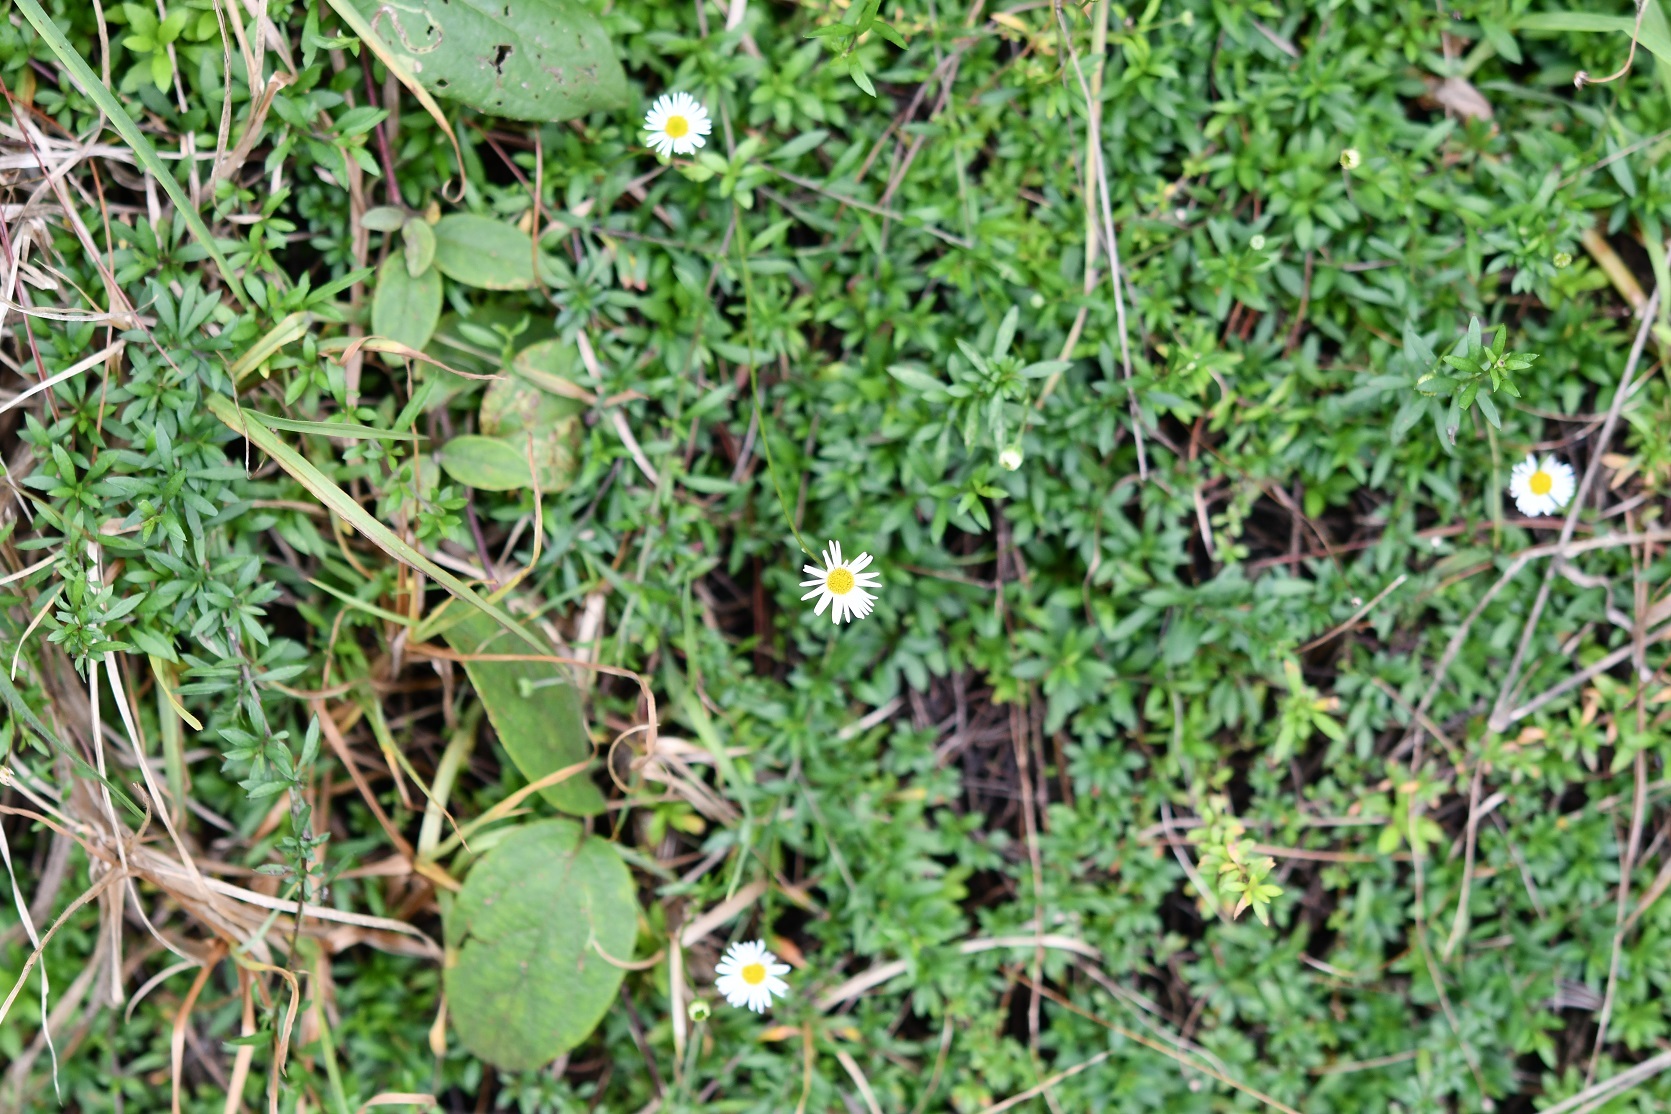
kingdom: Plantae
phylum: Tracheophyta
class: Magnoliopsida
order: Asterales
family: Asteraceae
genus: Erigeron
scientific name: Erigeron karvinskianus
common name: Mexican fleabane
